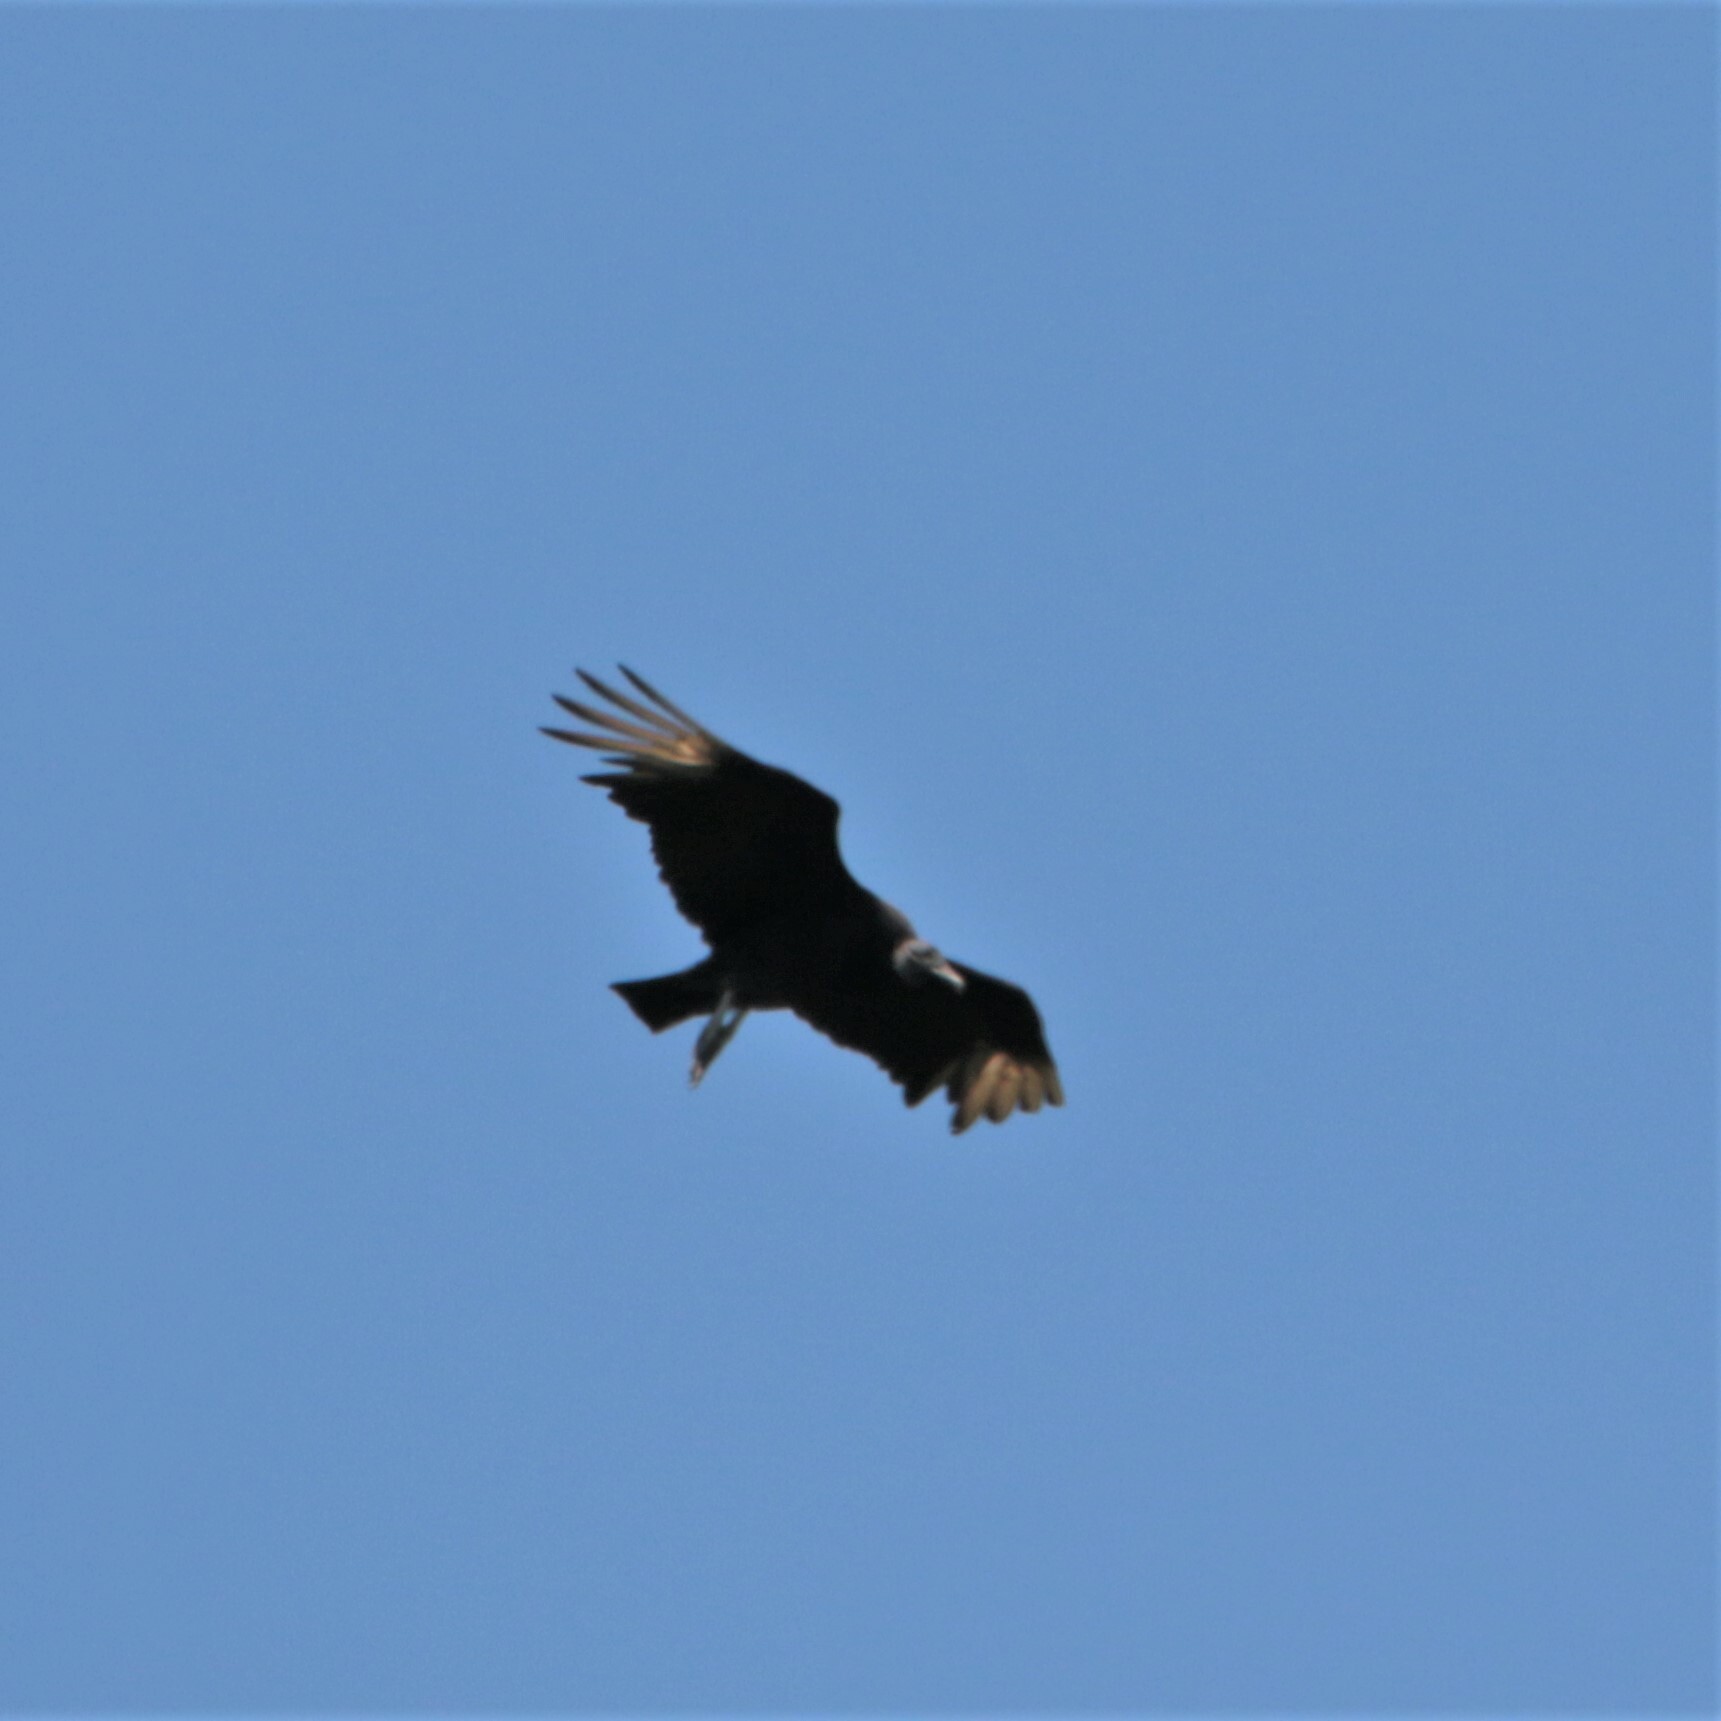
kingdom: Animalia
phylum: Chordata
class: Aves
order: Accipitriformes
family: Cathartidae
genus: Coragyps
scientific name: Coragyps atratus
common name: Black vulture
